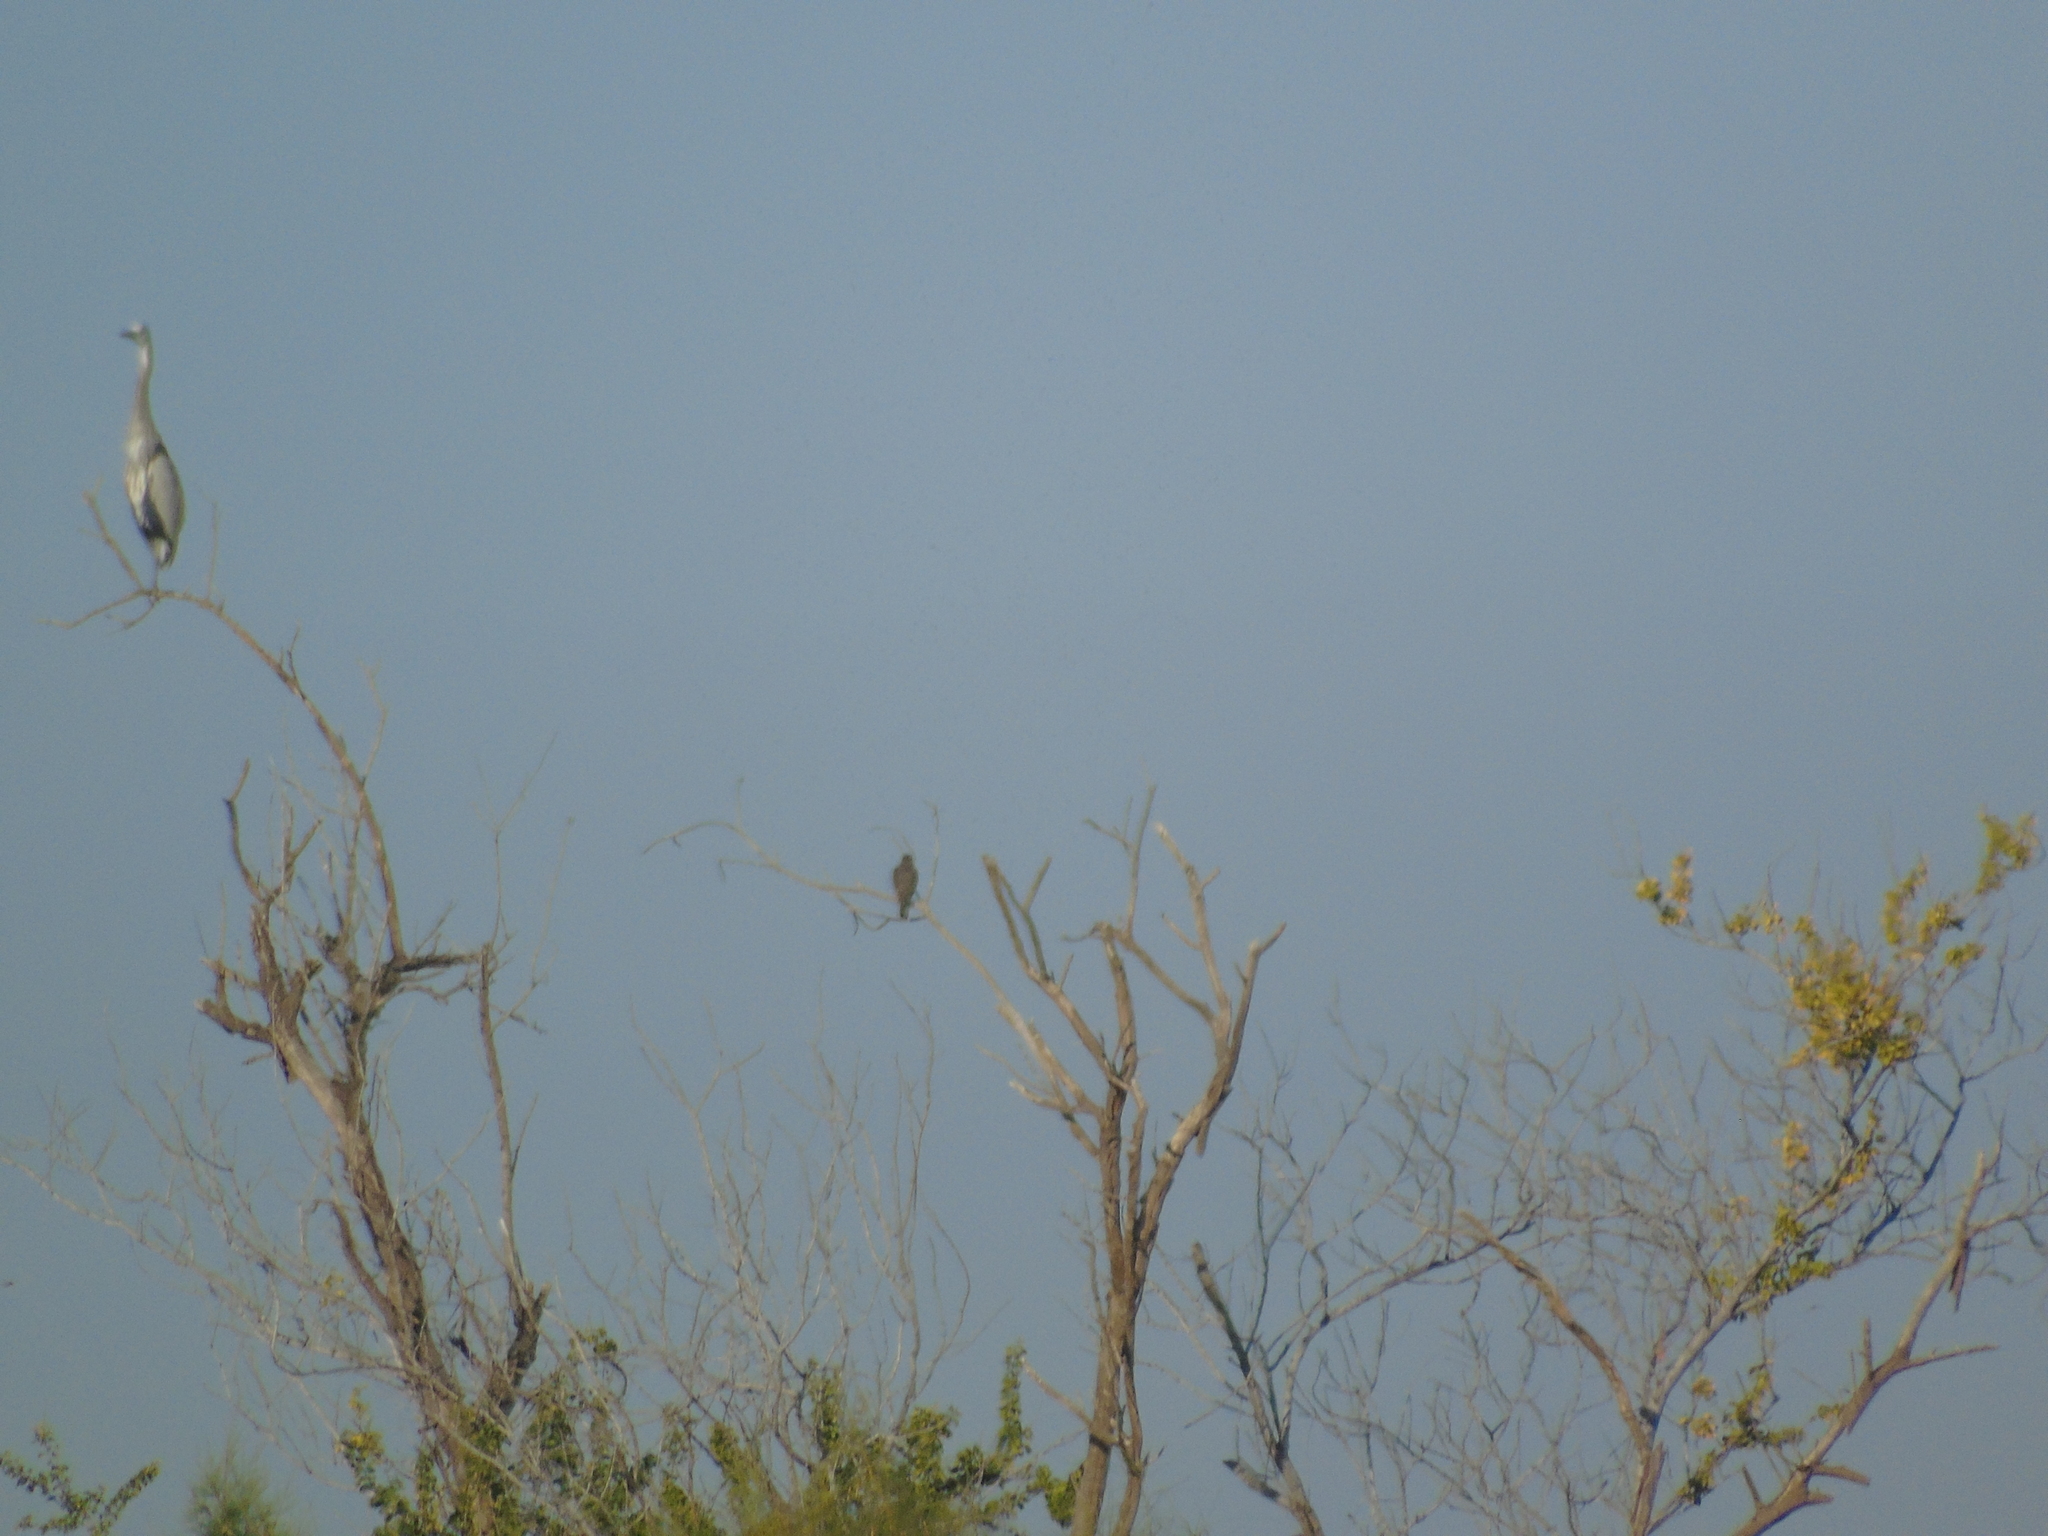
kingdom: Animalia
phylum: Chordata
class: Aves
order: Pelecaniformes
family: Ardeidae
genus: Ardea
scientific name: Ardea herodias
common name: Great blue heron
